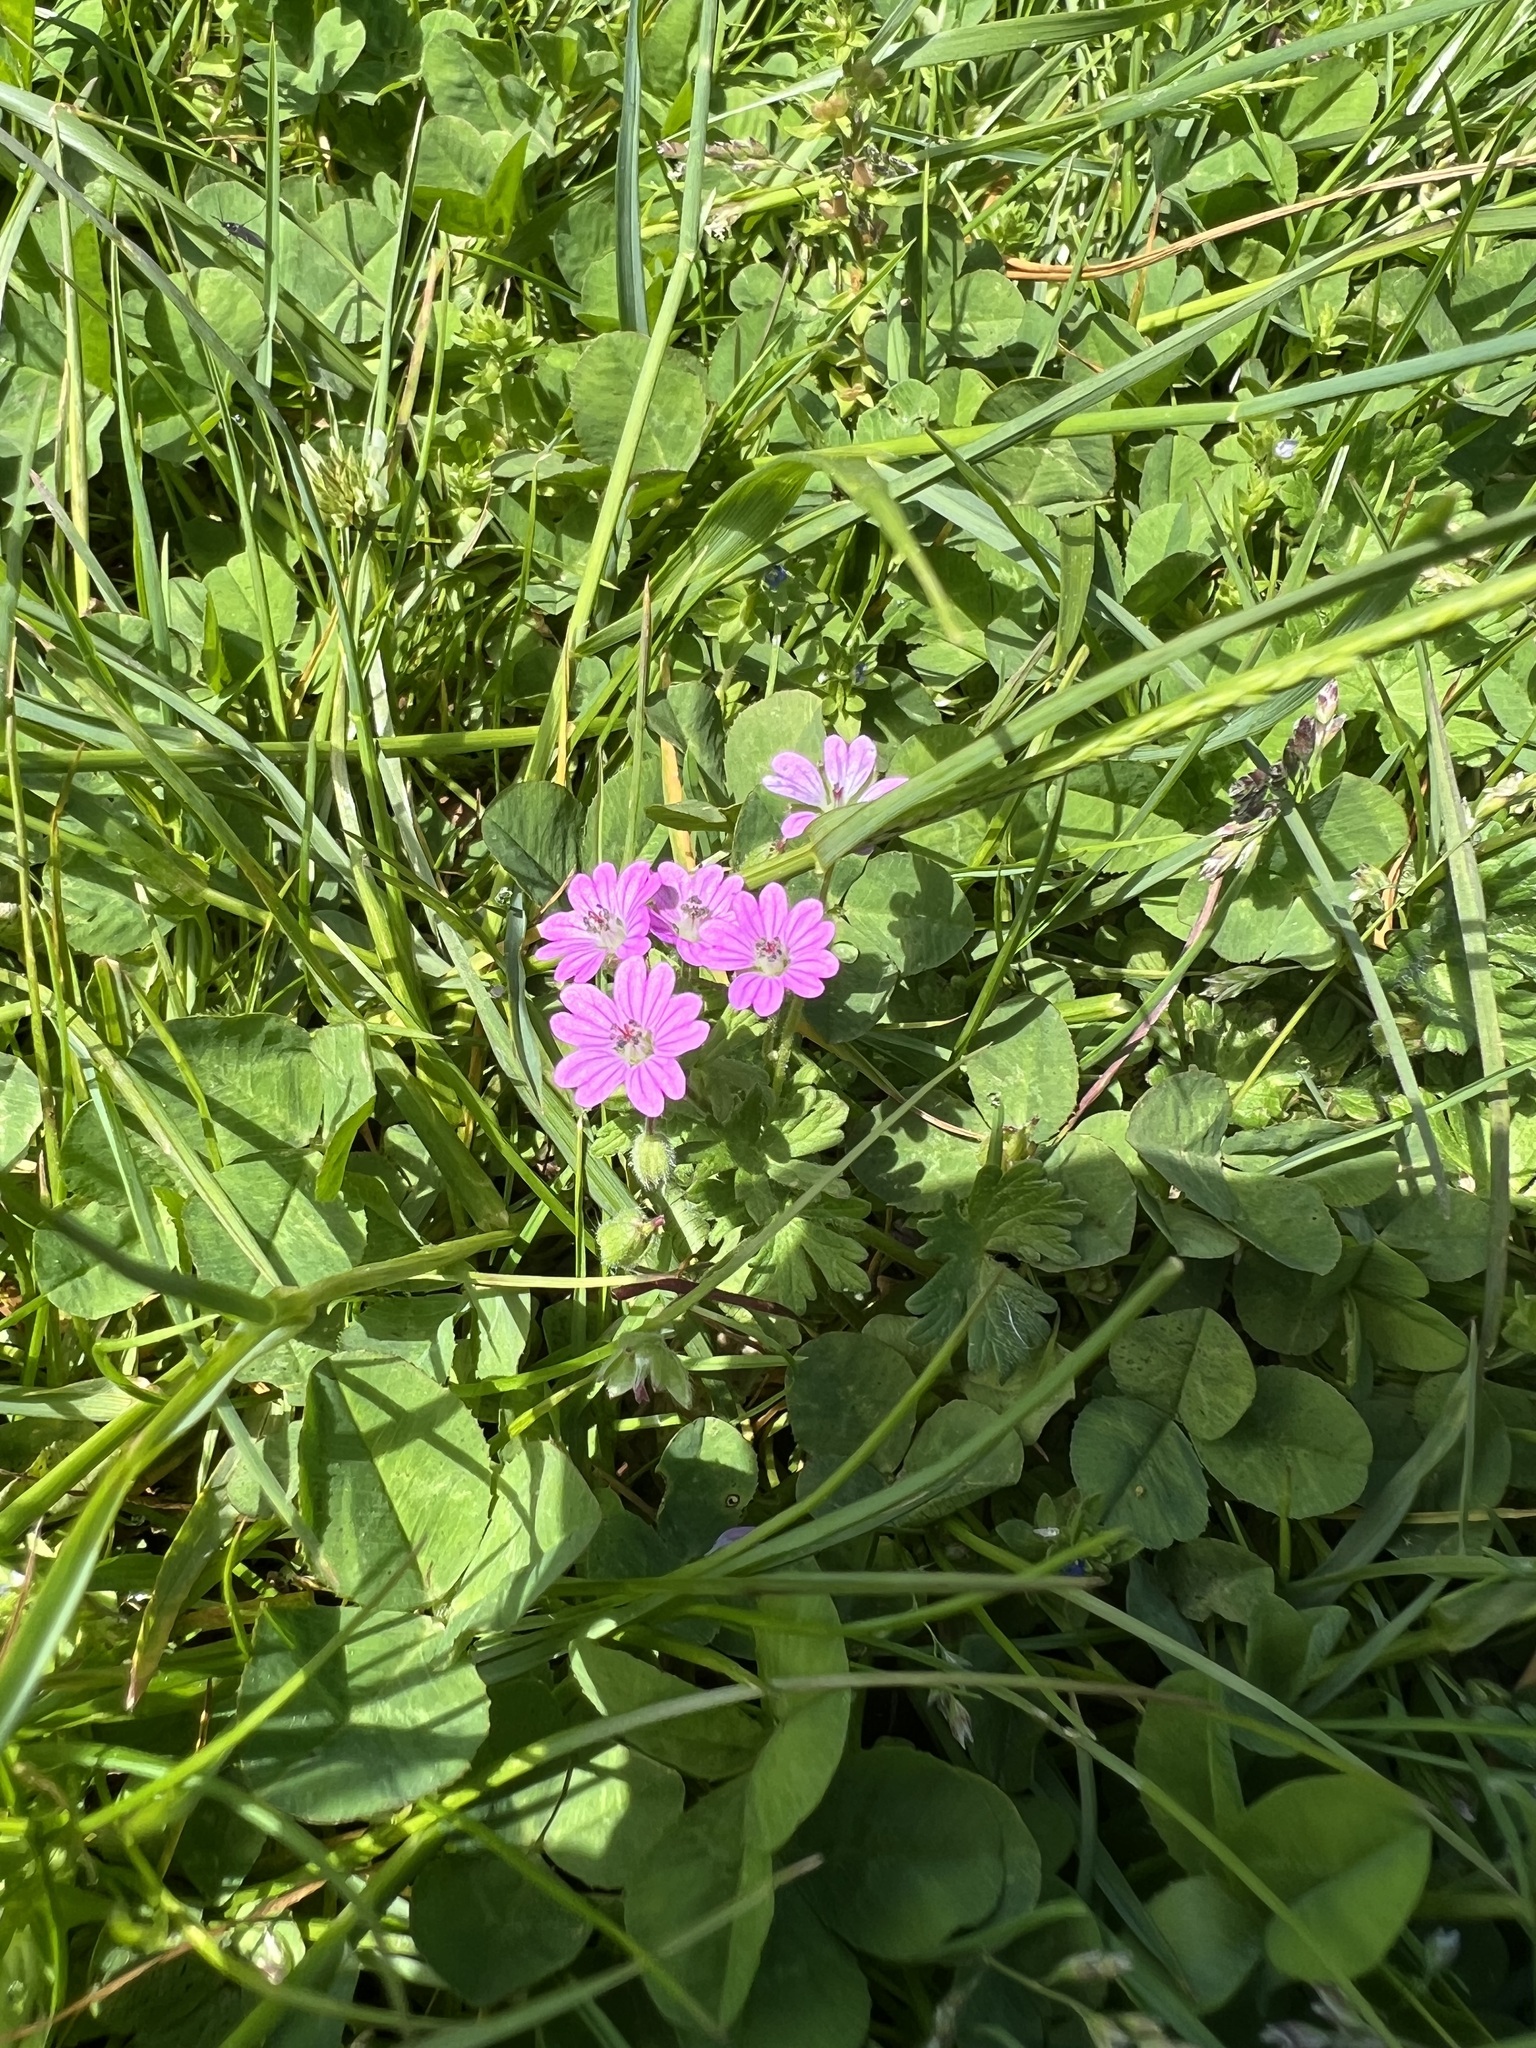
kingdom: Plantae
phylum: Tracheophyta
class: Magnoliopsida
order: Geraniales
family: Geraniaceae
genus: Geranium
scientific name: Geranium molle
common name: Dove's-foot crane's-bill
